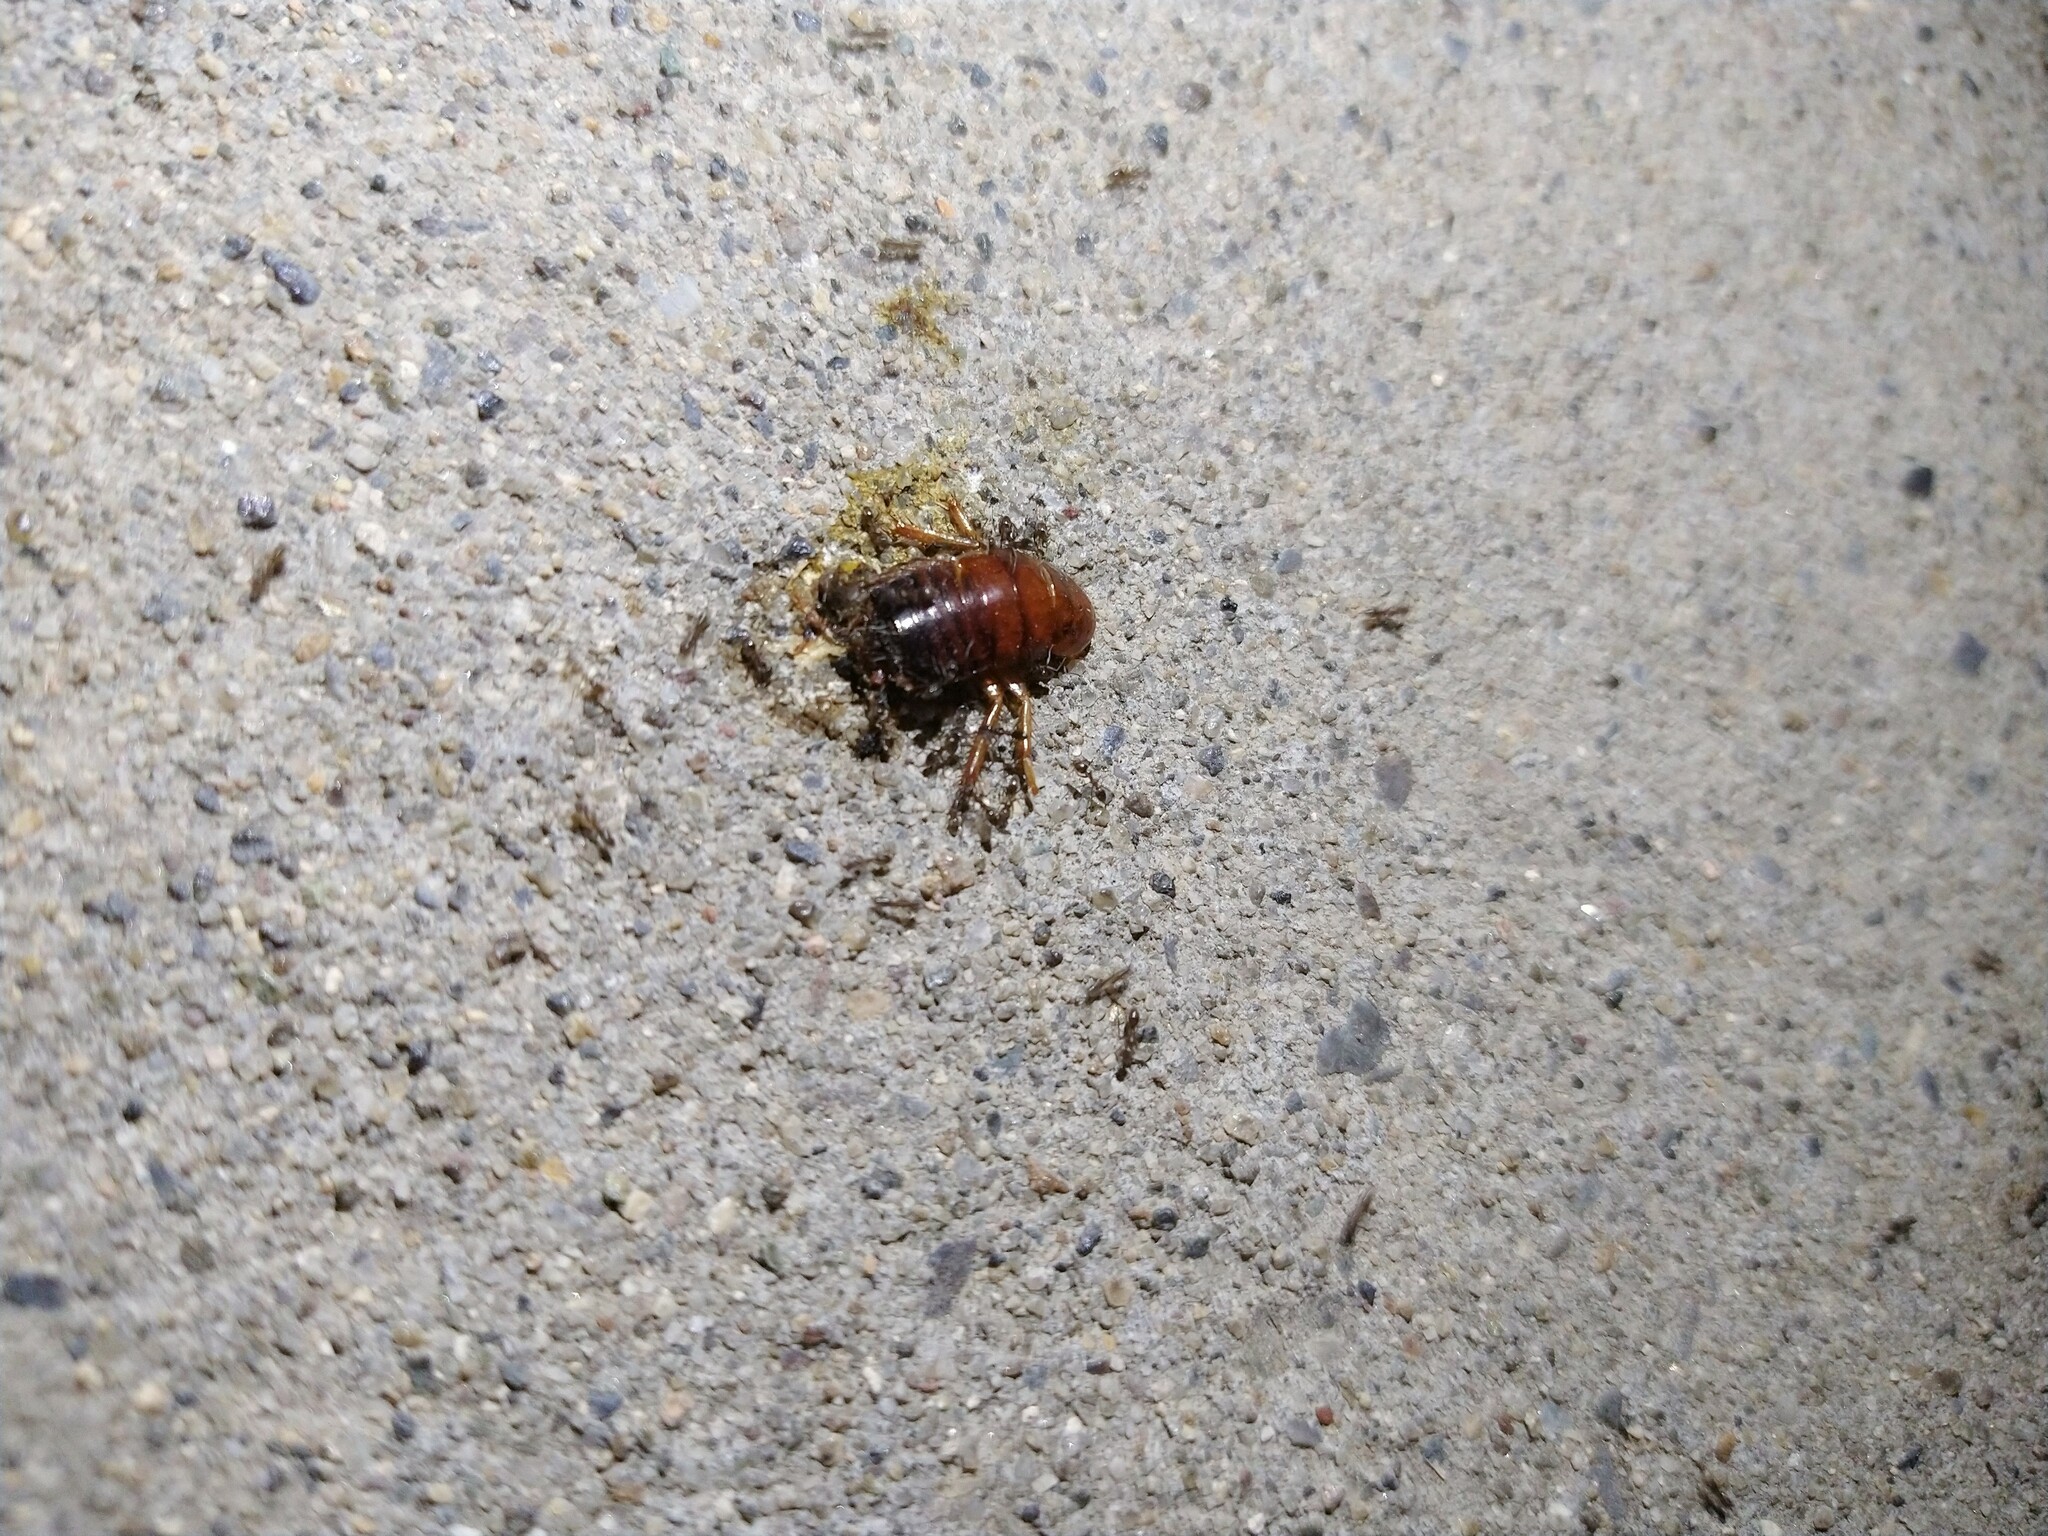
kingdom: Animalia
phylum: Arthropoda
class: Insecta
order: Hymenoptera
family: Formicidae
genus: Linepithema
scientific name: Linepithema humile
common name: Argentine ant
